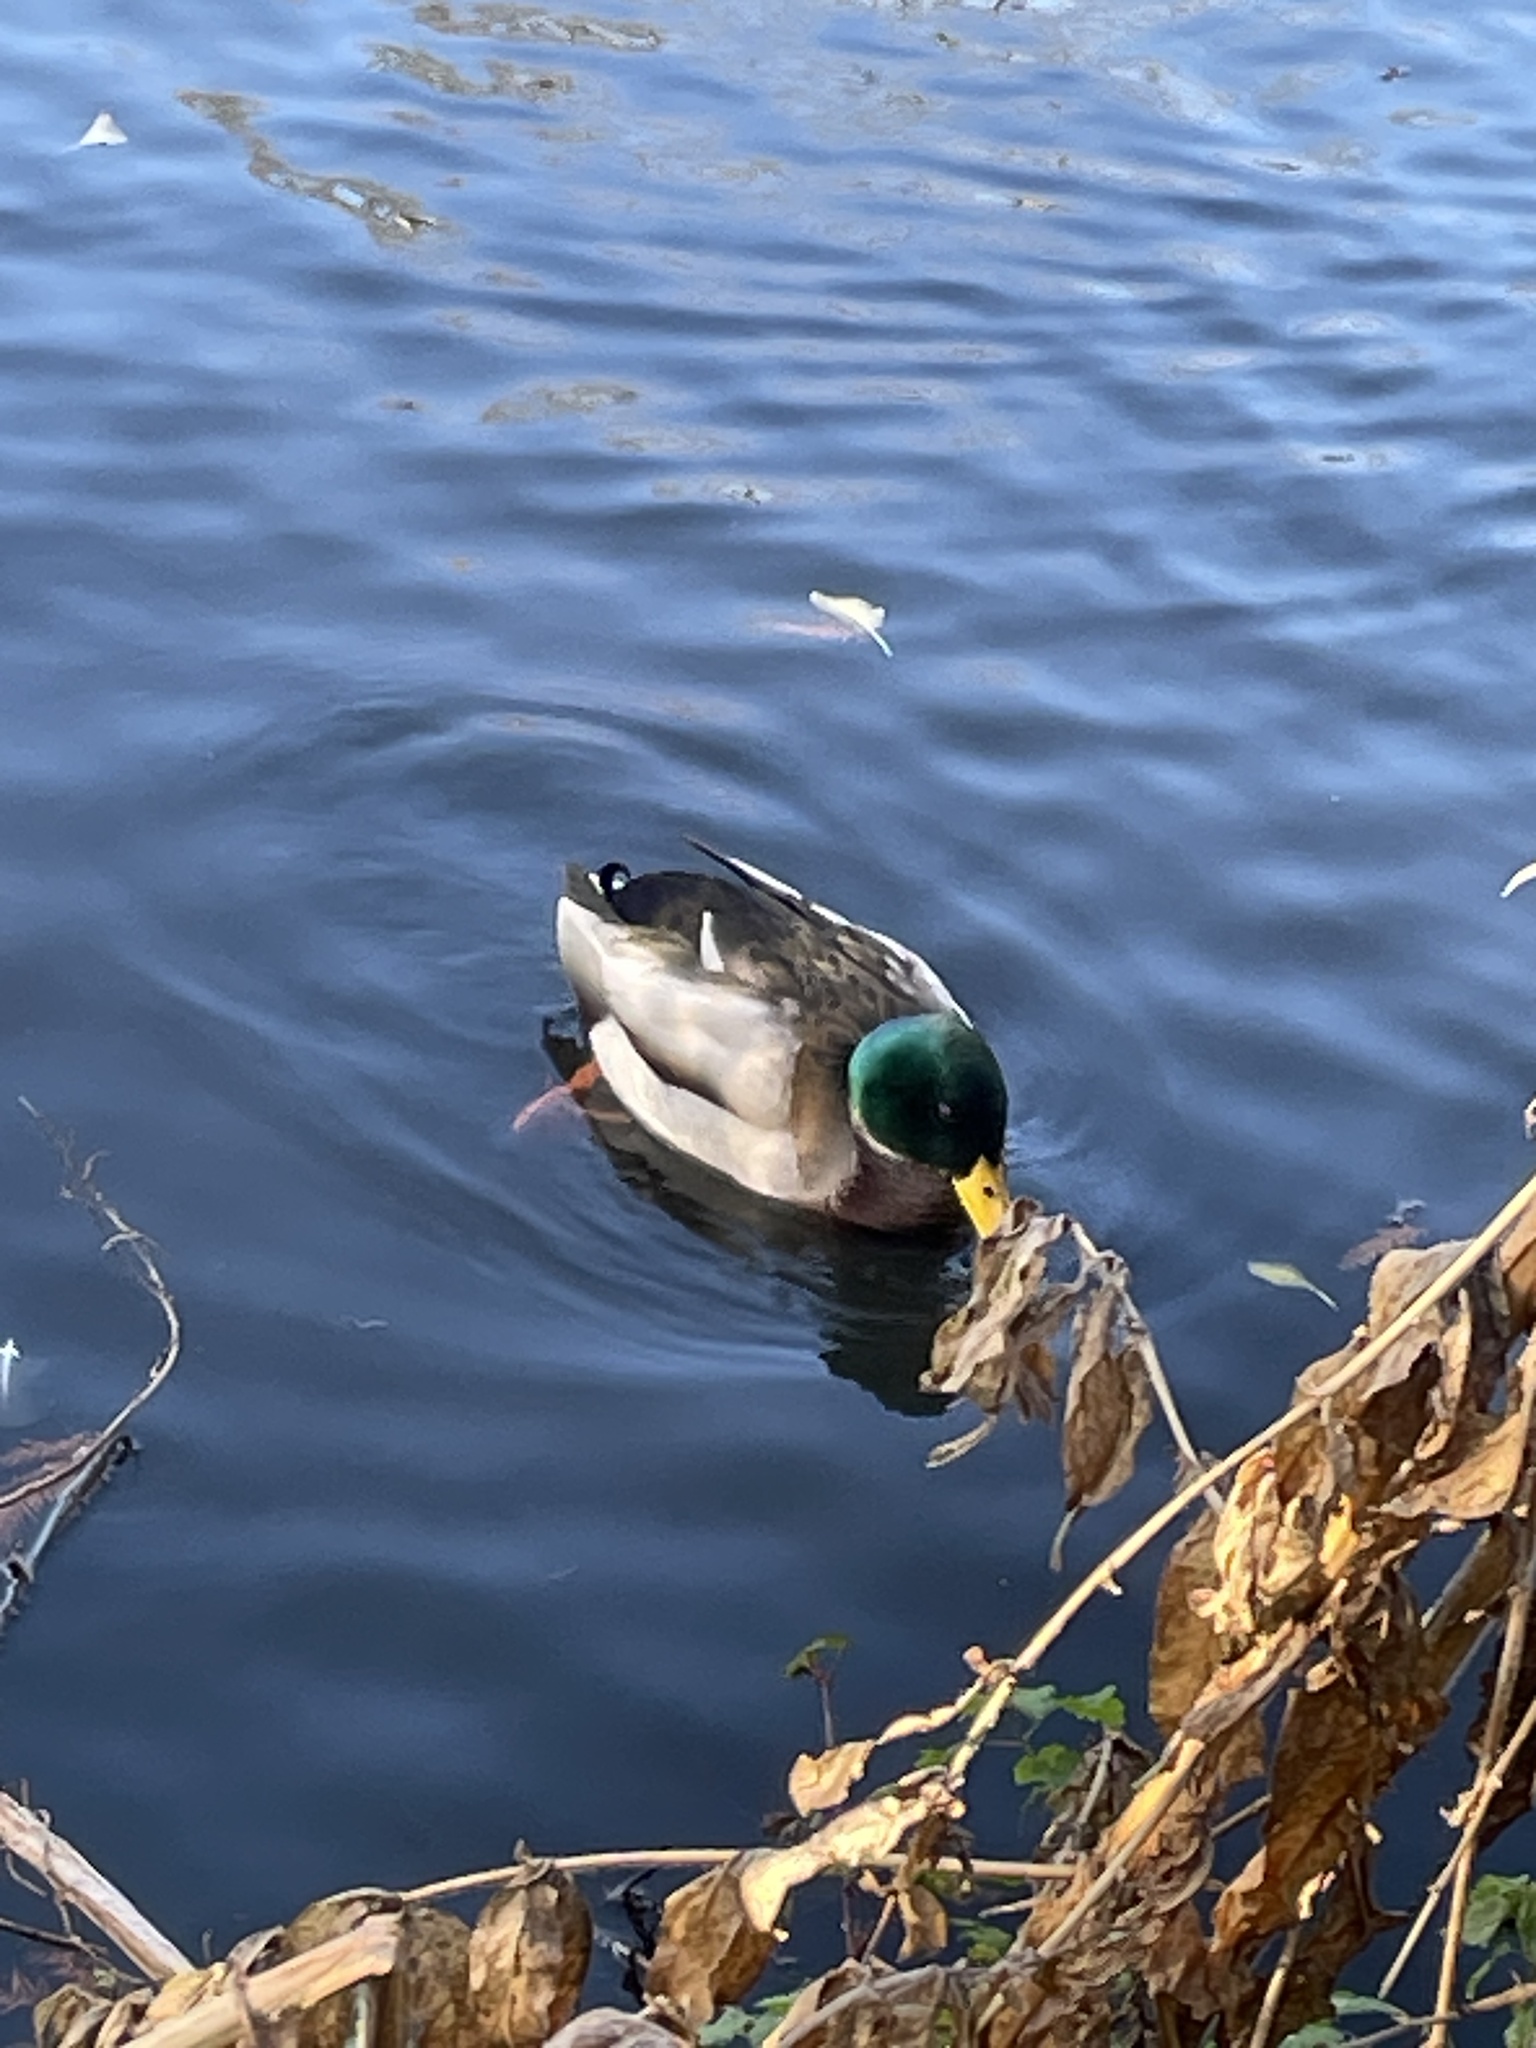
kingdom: Animalia
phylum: Chordata
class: Aves
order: Anseriformes
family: Anatidae
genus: Anas
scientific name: Anas platyrhynchos
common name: Mallard
